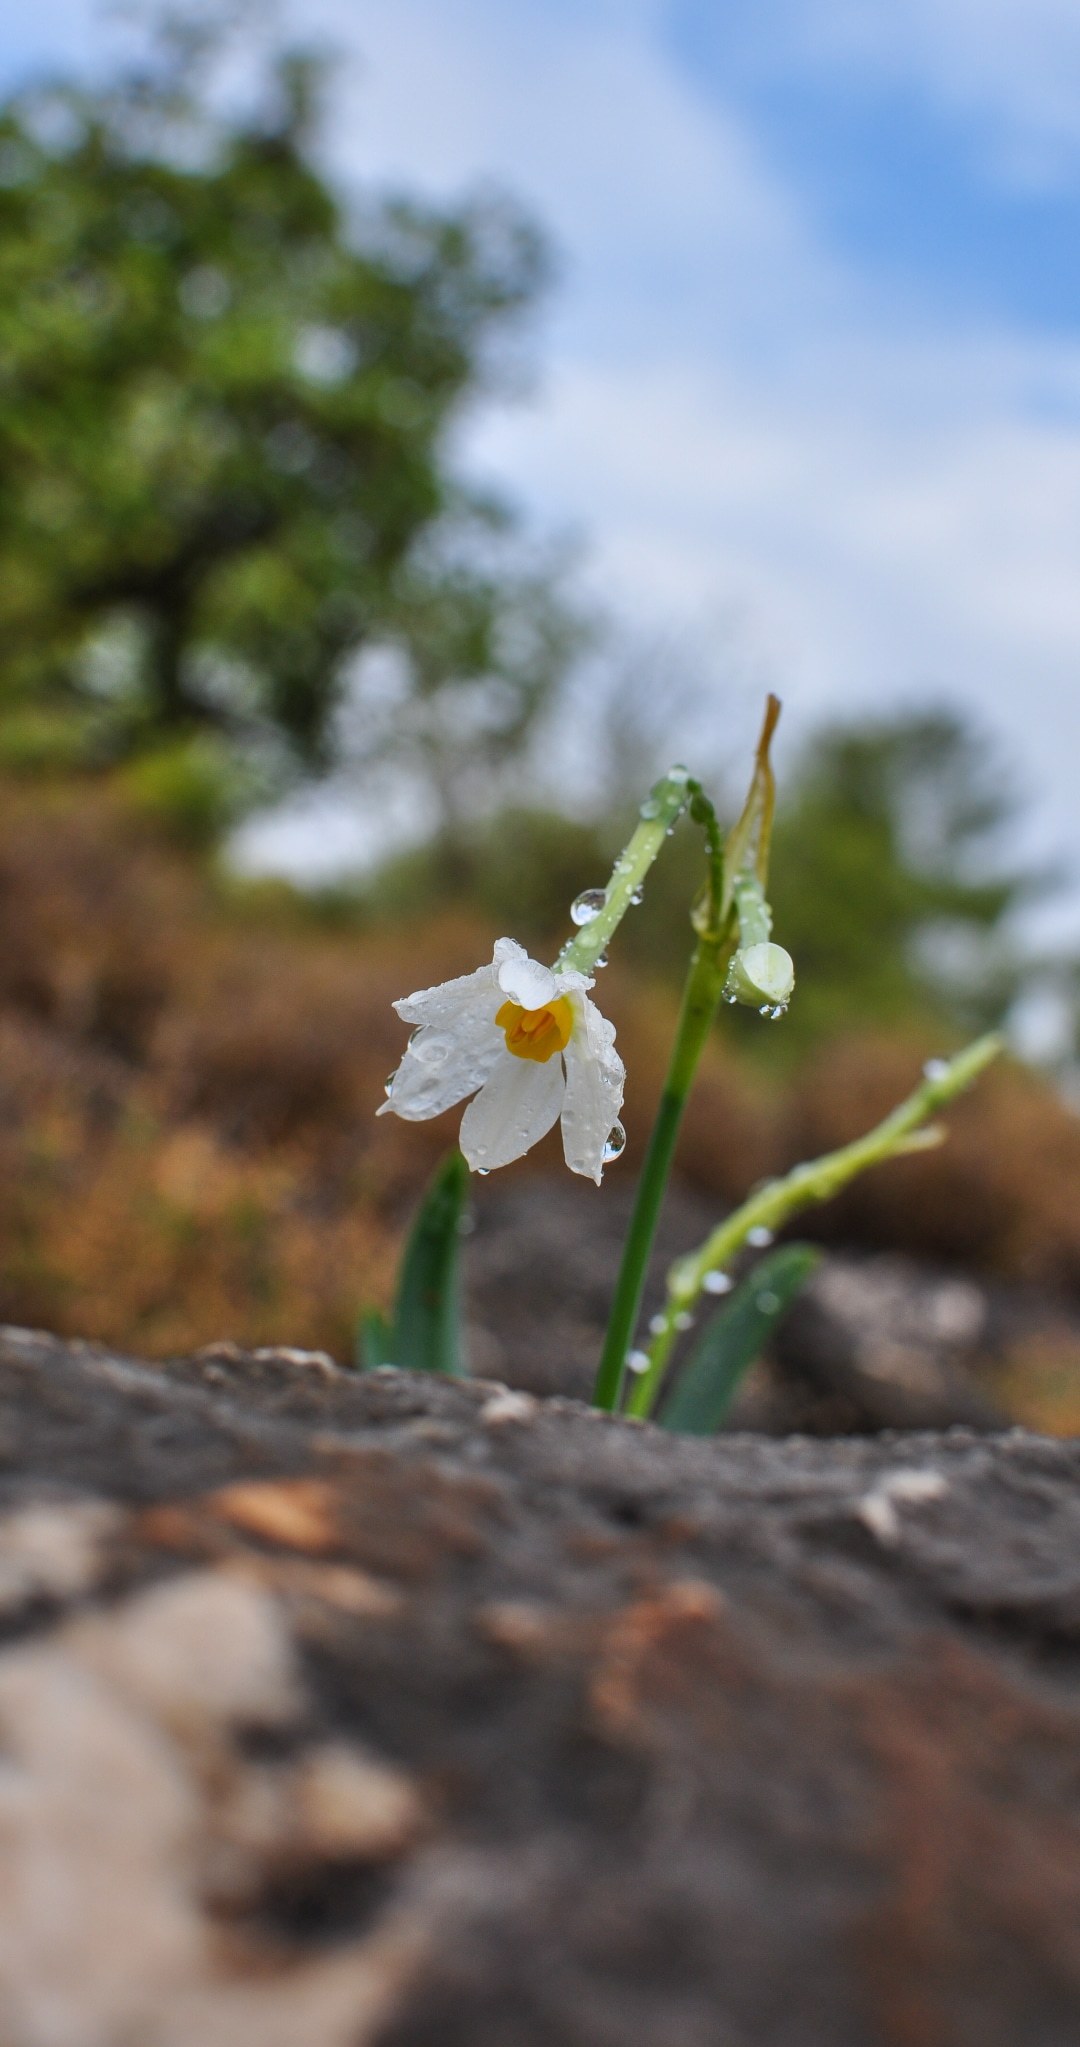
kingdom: Plantae
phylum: Tracheophyta
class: Liliopsida
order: Asparagales
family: Amaryllidaceae
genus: Narcissus
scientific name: Narcissus tazetta
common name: Bunch-flowered daffodil
